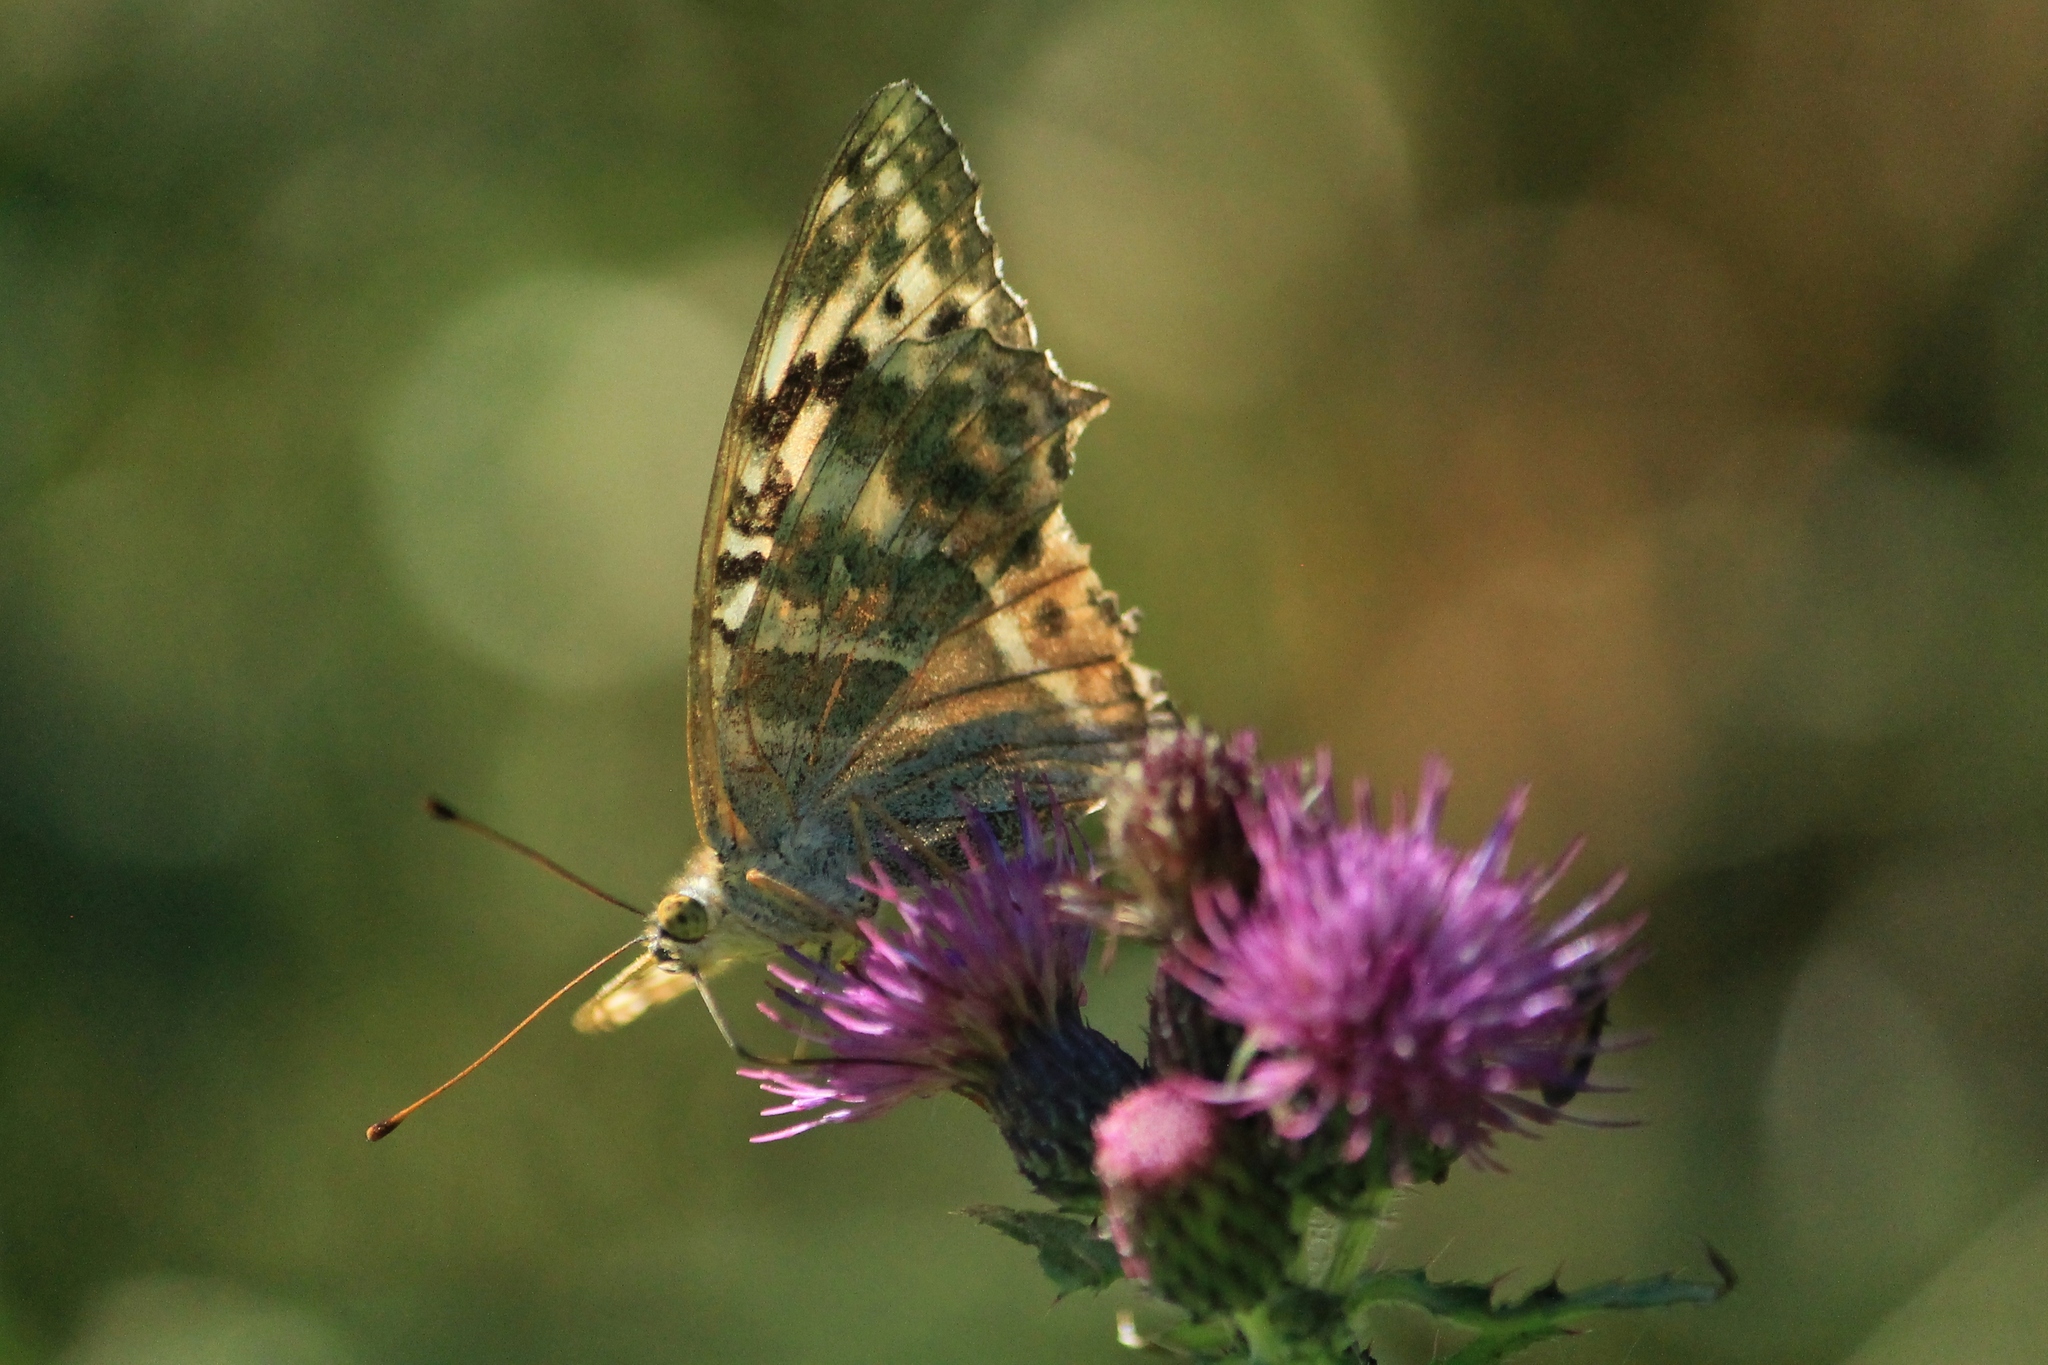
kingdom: Animalia
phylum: Arthropoda
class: Insecta
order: Lepidoptera
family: Nymphalidae
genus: Argynnis
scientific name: Argynnis paphia
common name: Silver-washed fritillary
